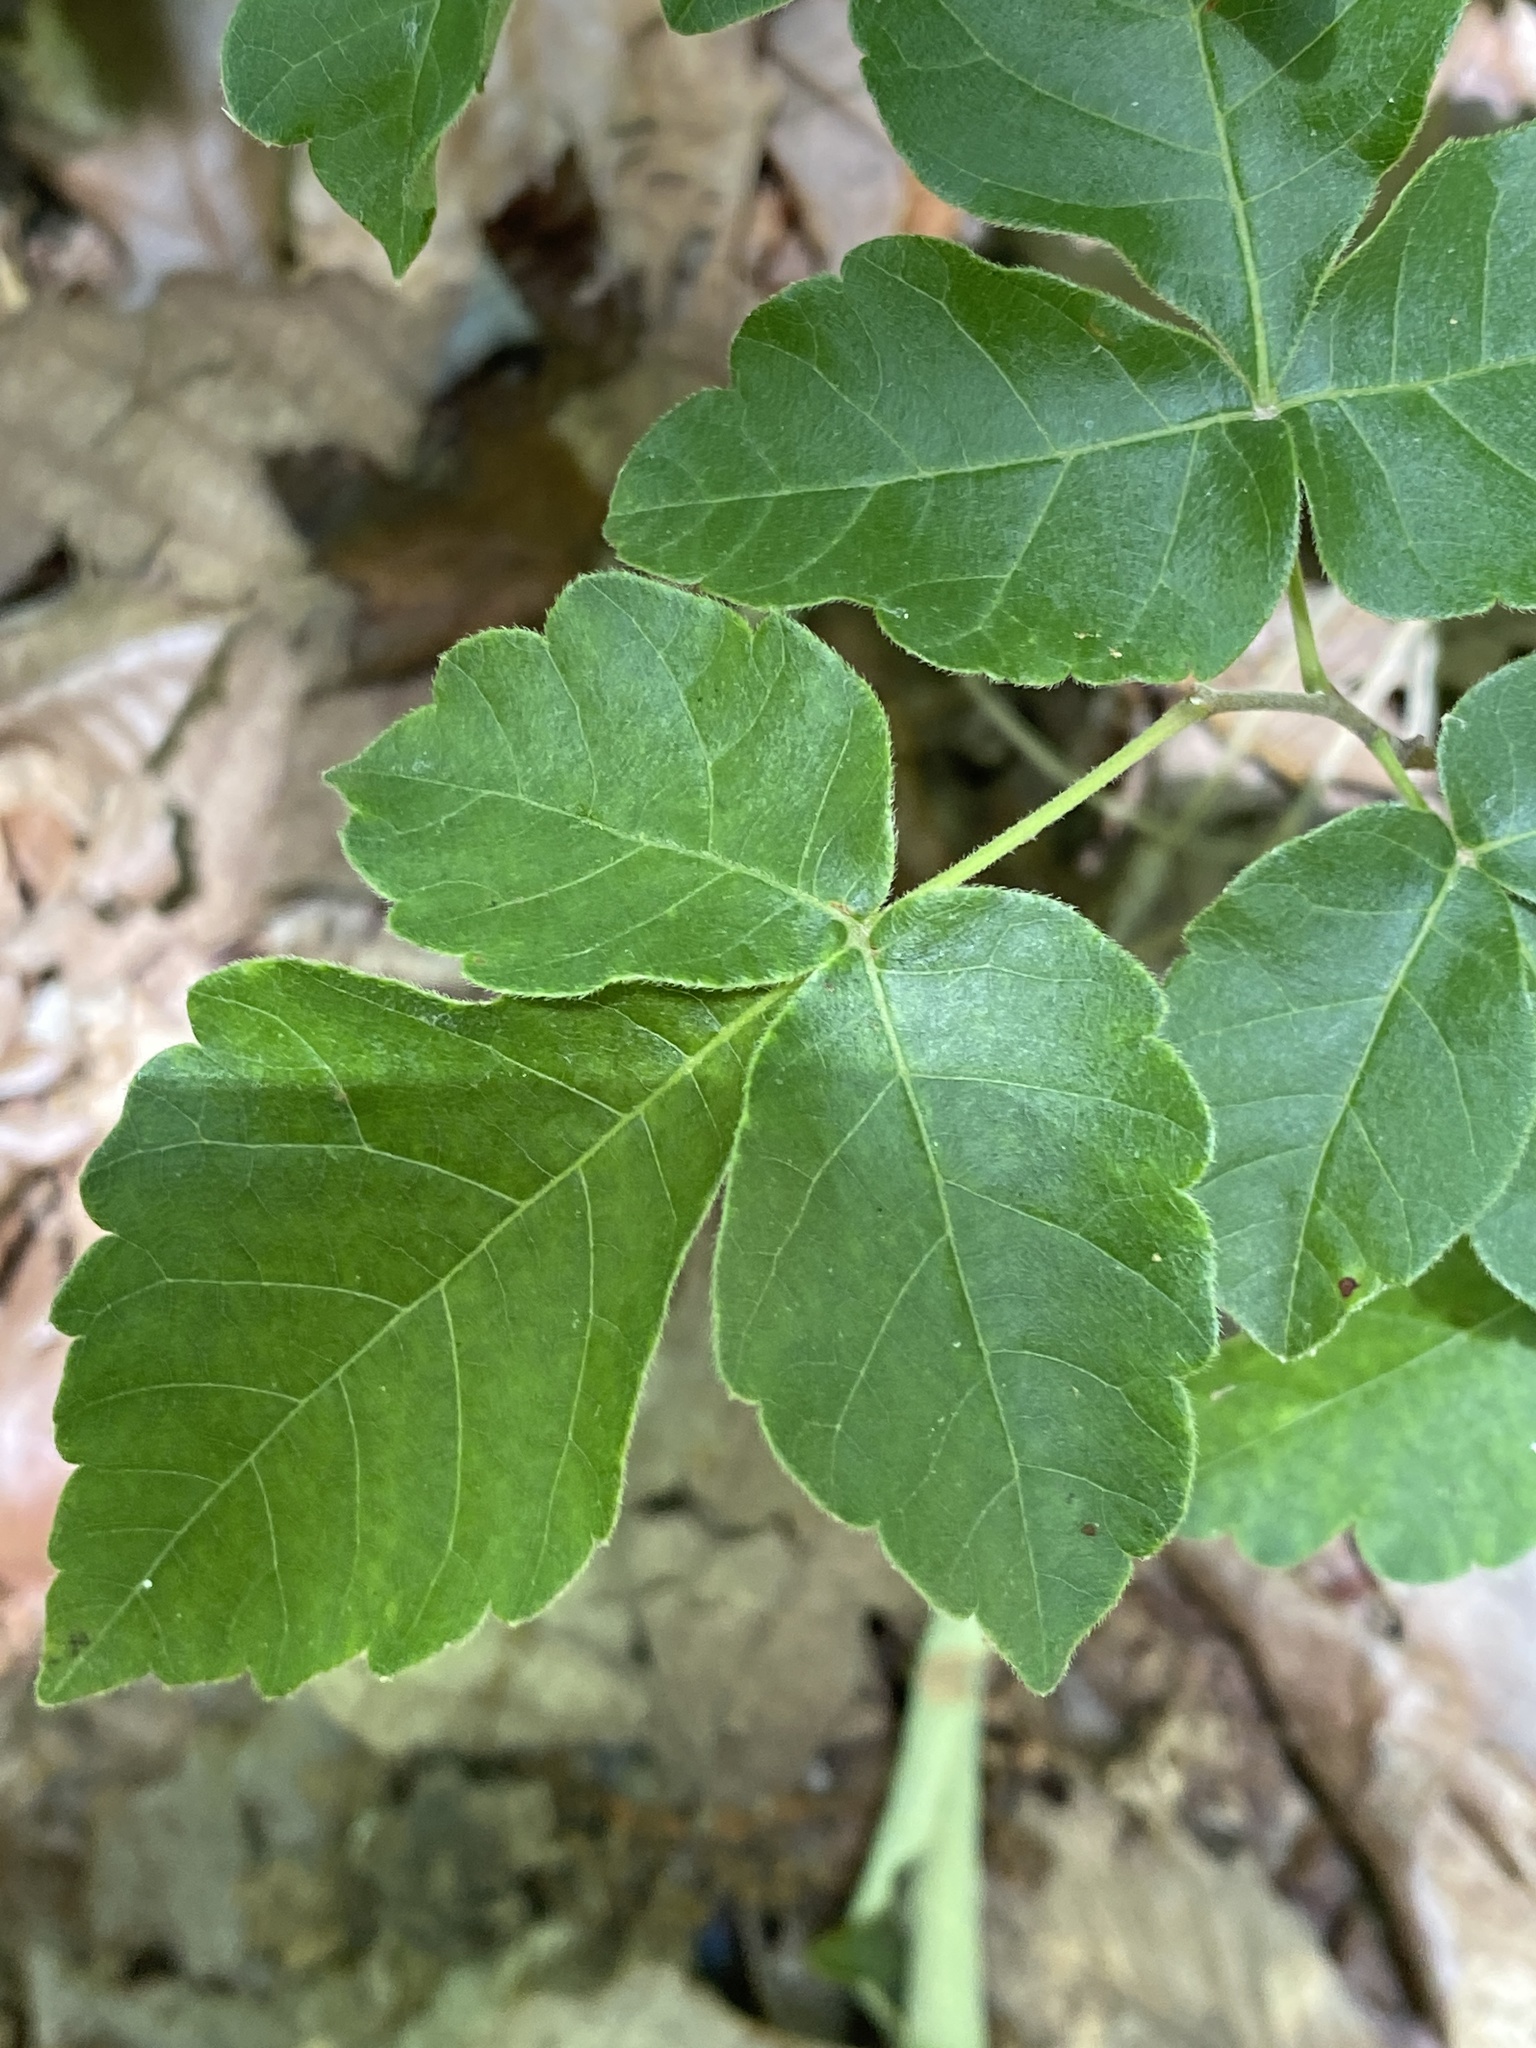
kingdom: Plantae
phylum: Tracheophyta
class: Magnoliopsida
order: Sapindales
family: Anacardiaceae
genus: Rhus
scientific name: Rhus aromatica
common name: Aromatic sumac
